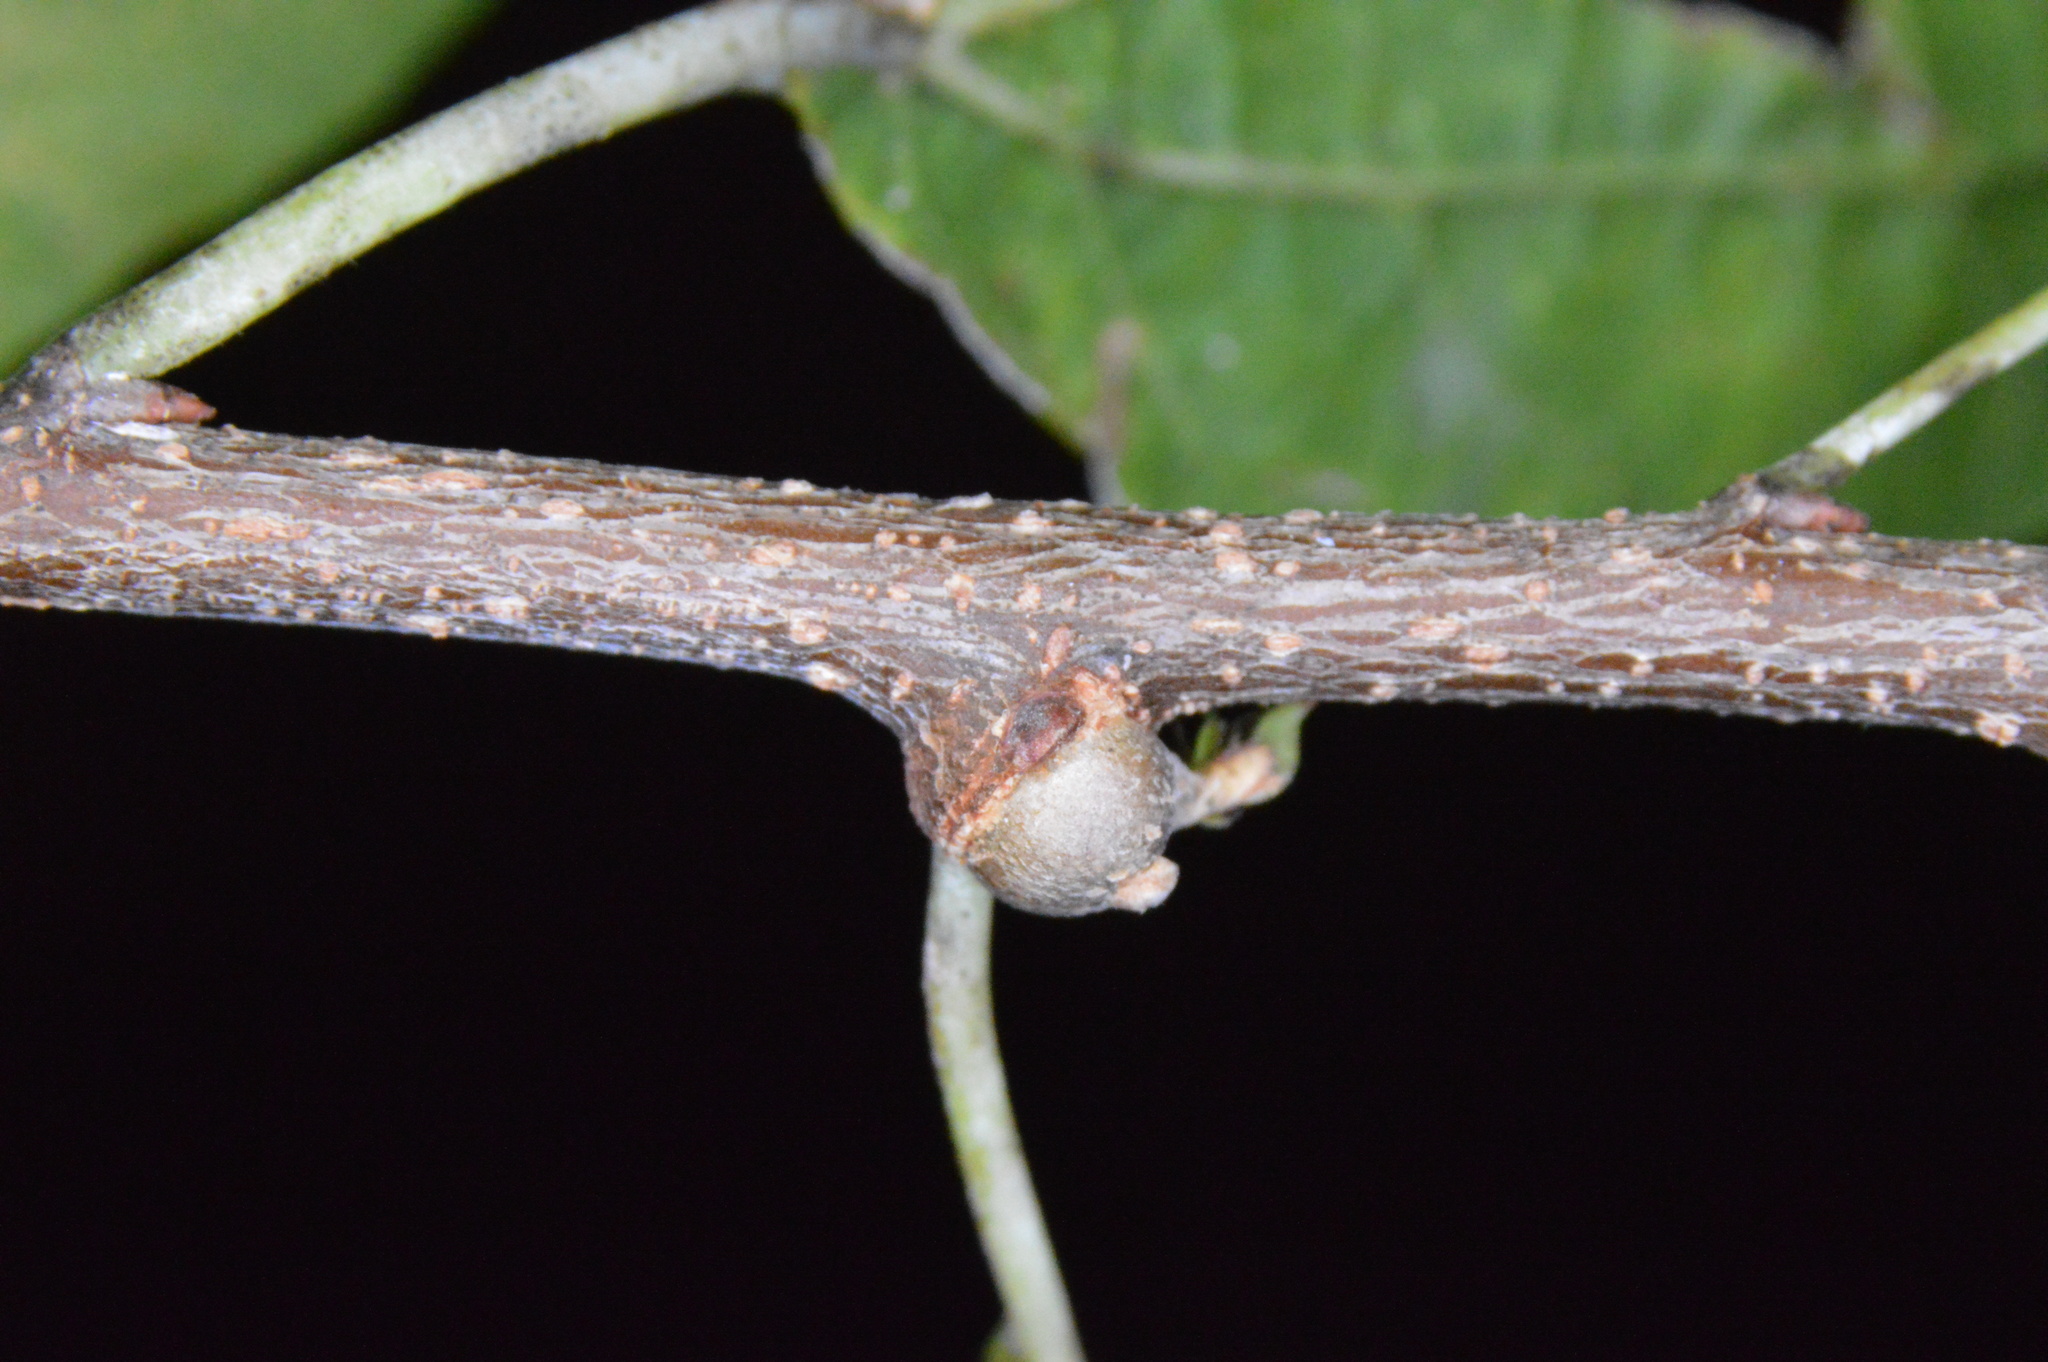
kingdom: Animalia
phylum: Arthropoda
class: Insecta
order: Hemiptera
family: Aphalaridae
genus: Pachypsylla
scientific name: Pachypsylla celtidisgemma
